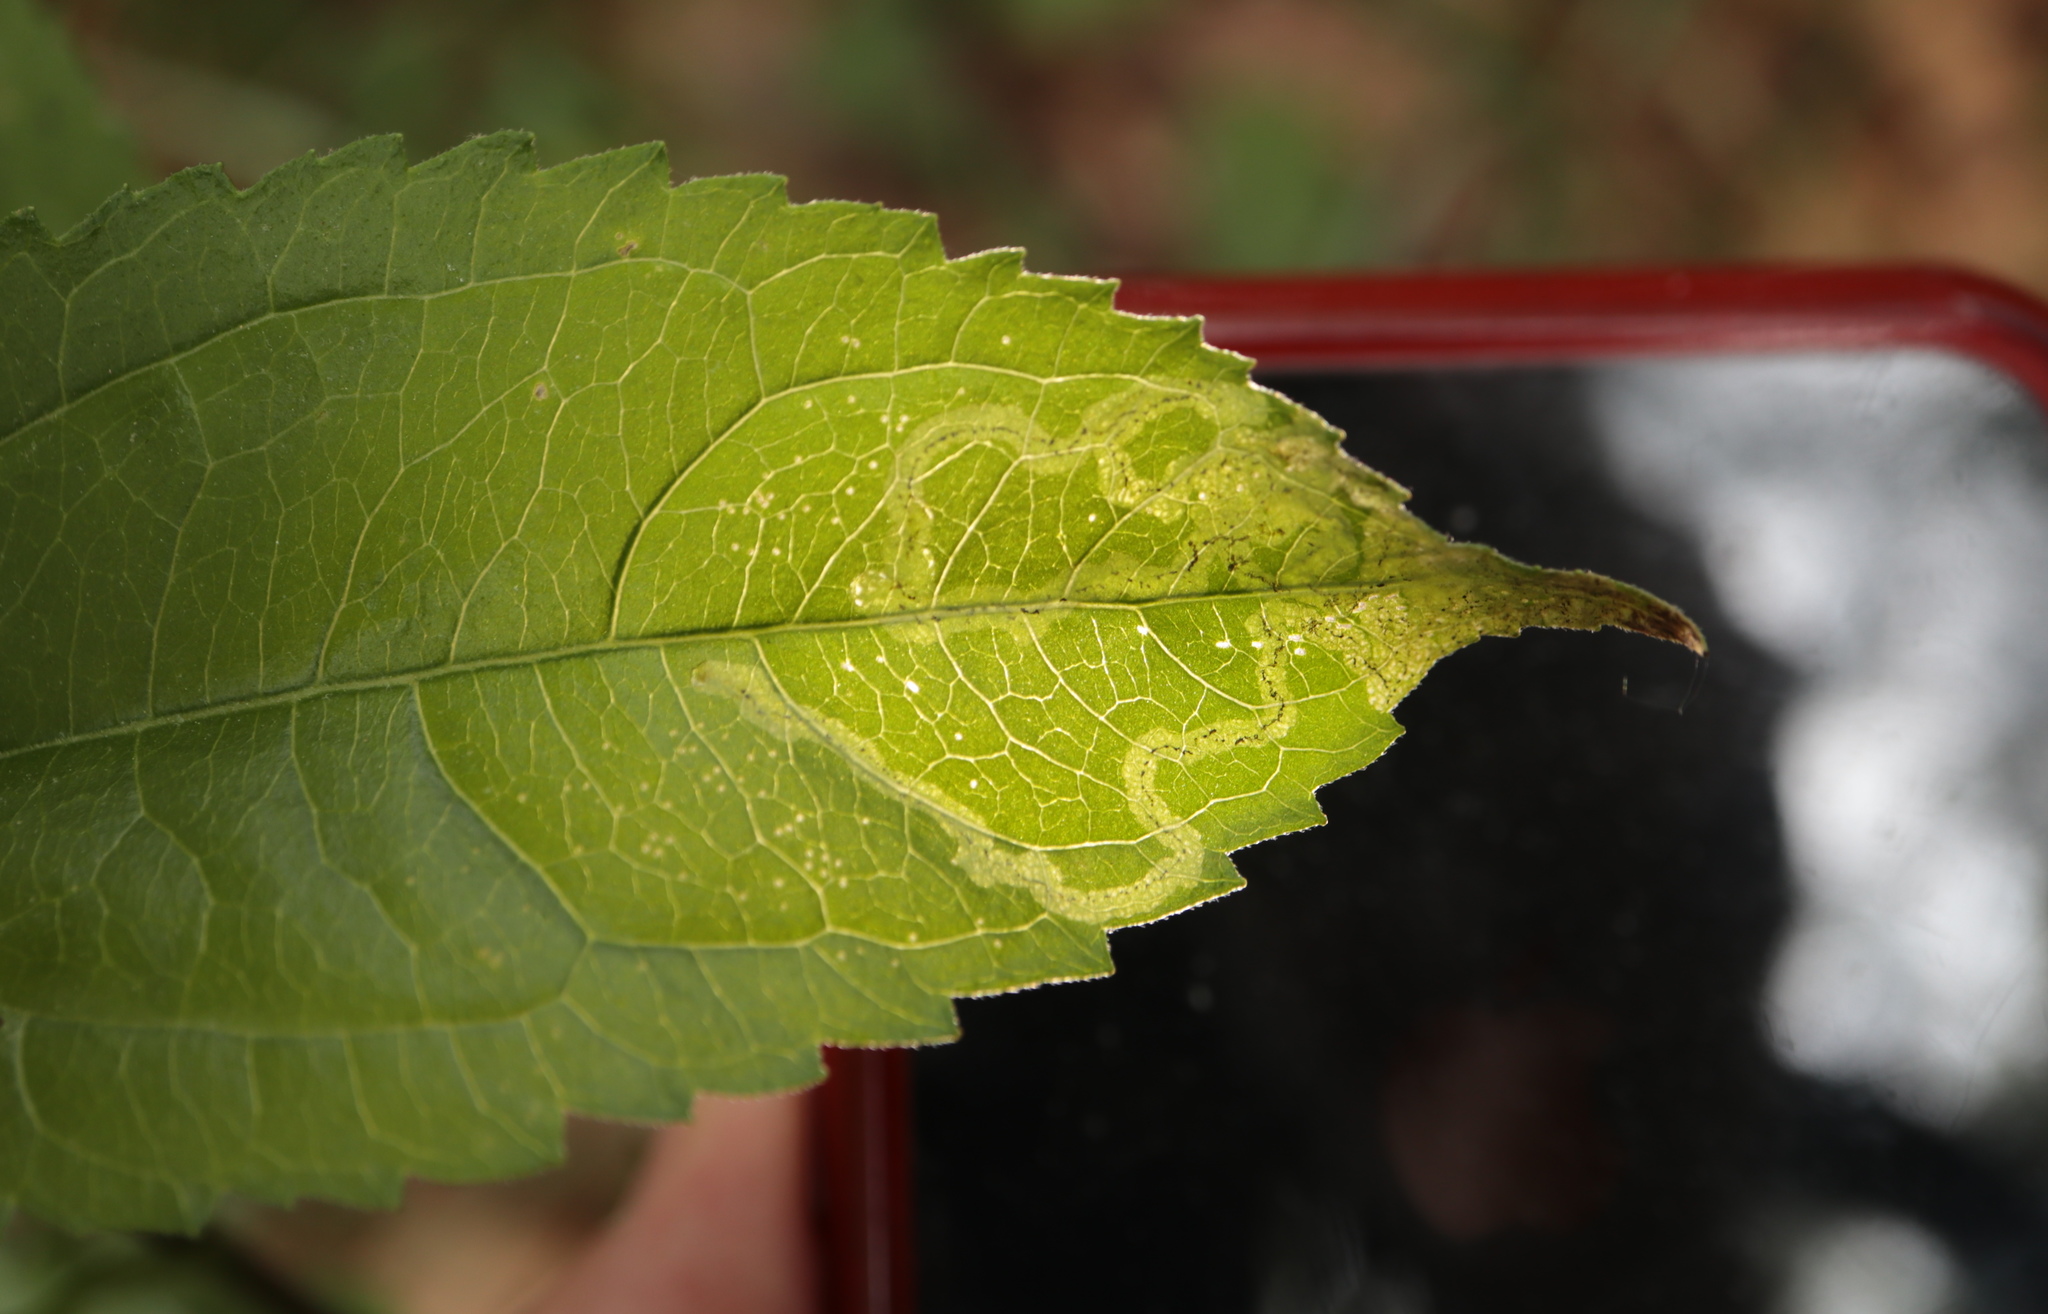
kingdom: Animalia
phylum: Arthropoda
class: Insecta
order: Diptera
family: Agromyzidae
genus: Liriomyza
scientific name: Liriomyza carphephori
